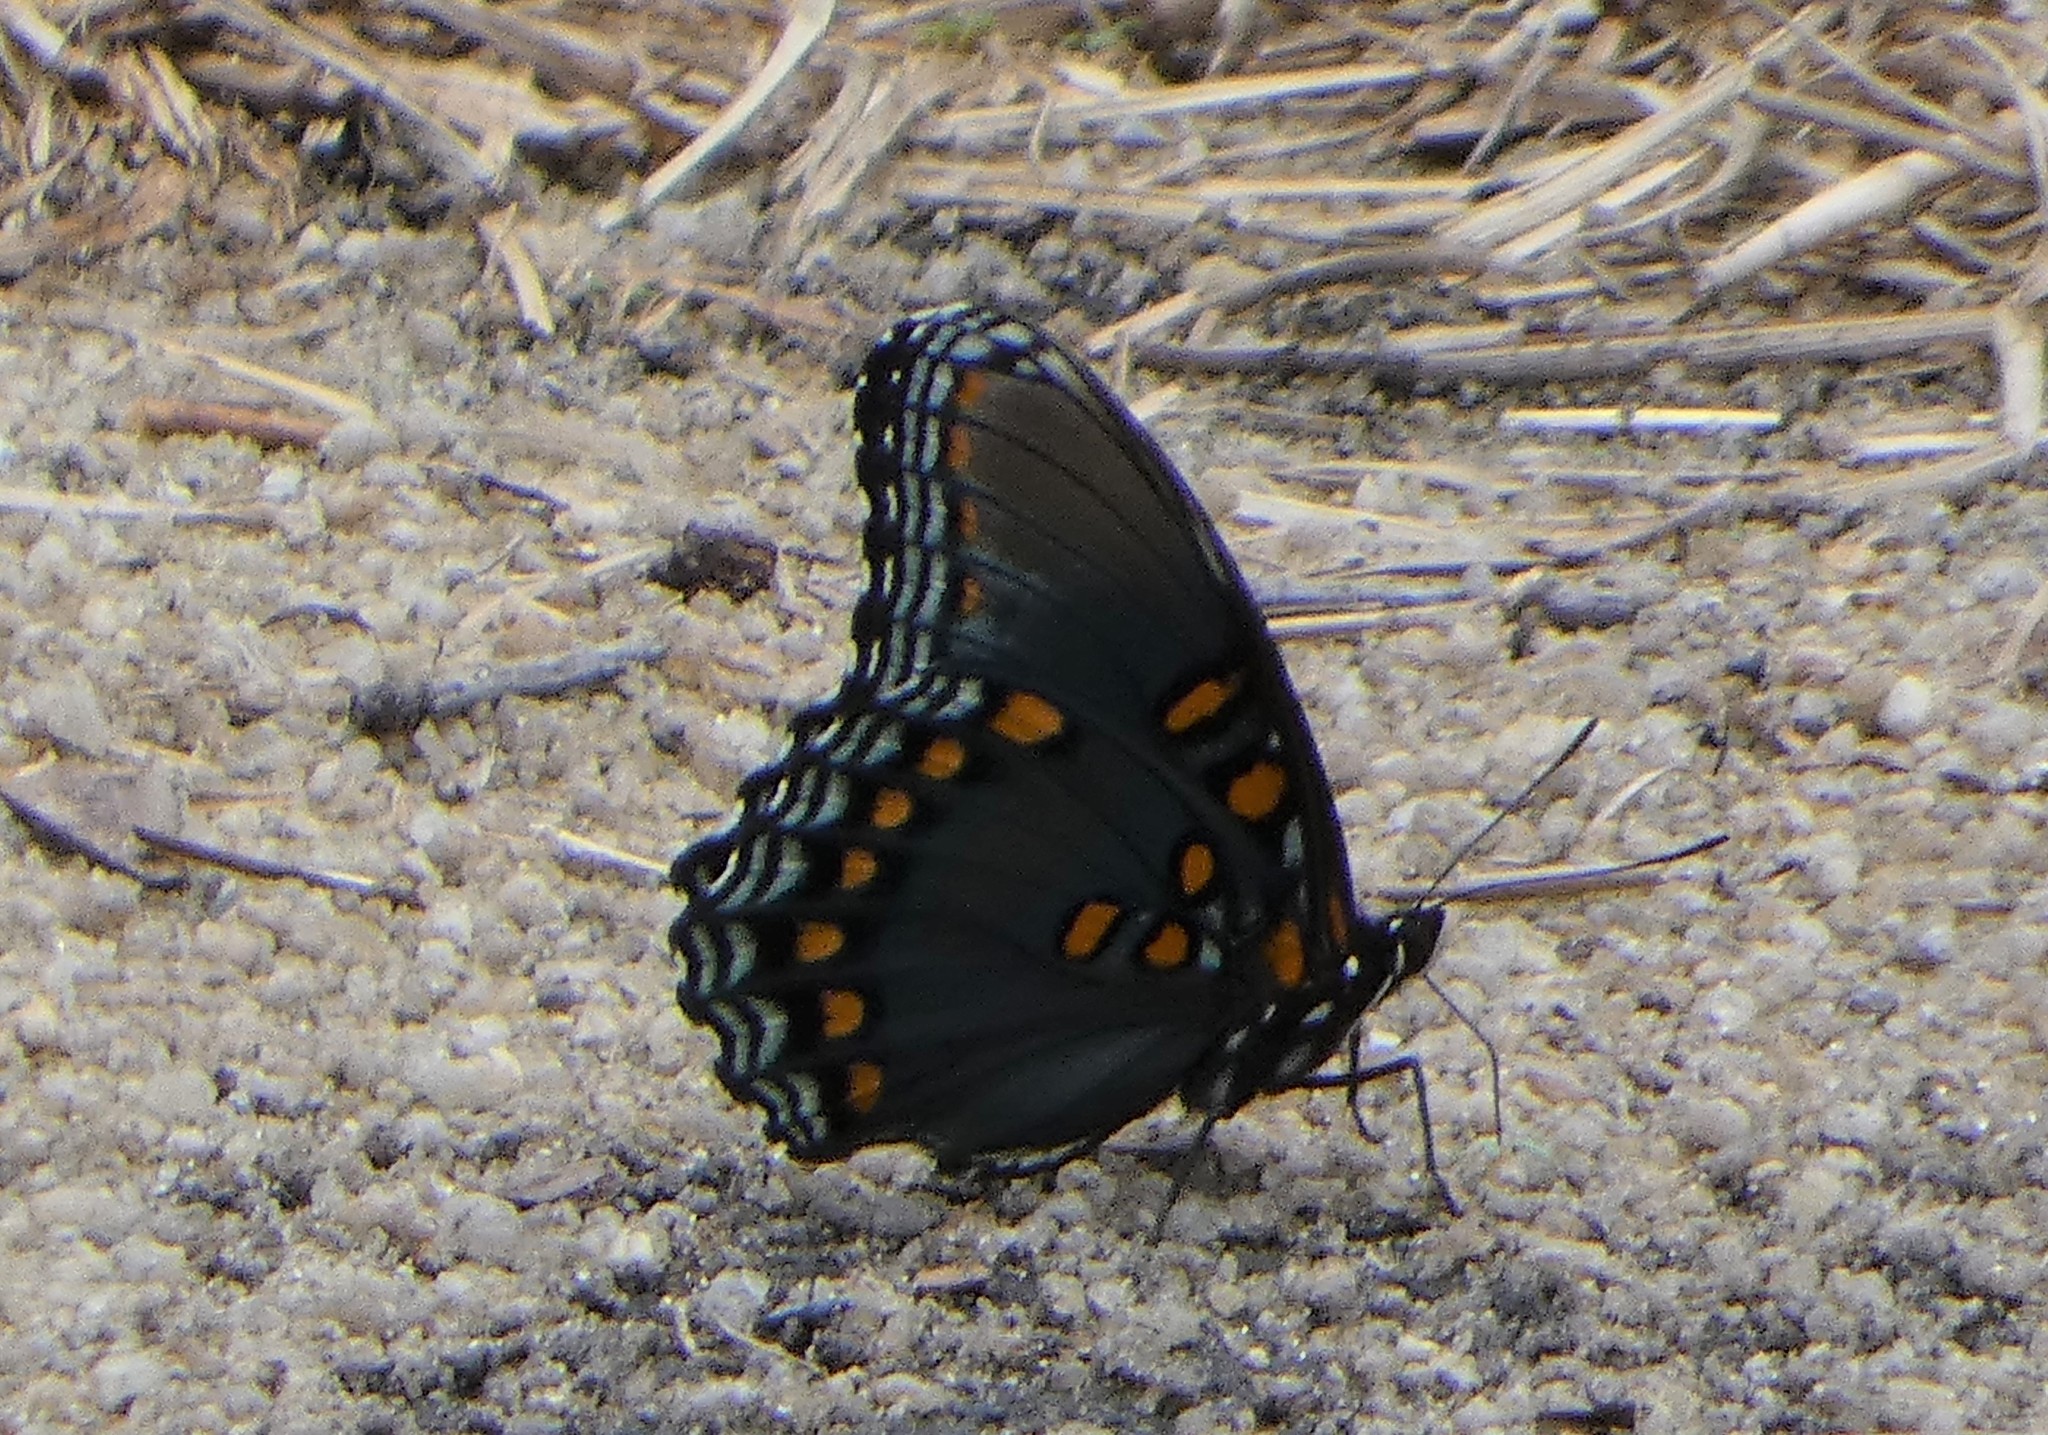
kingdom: Animalia
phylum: Arthropoda
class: Insecta
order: Lepidoptera
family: Nymphalidae
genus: Limenitis
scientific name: Limenitis astyanax
